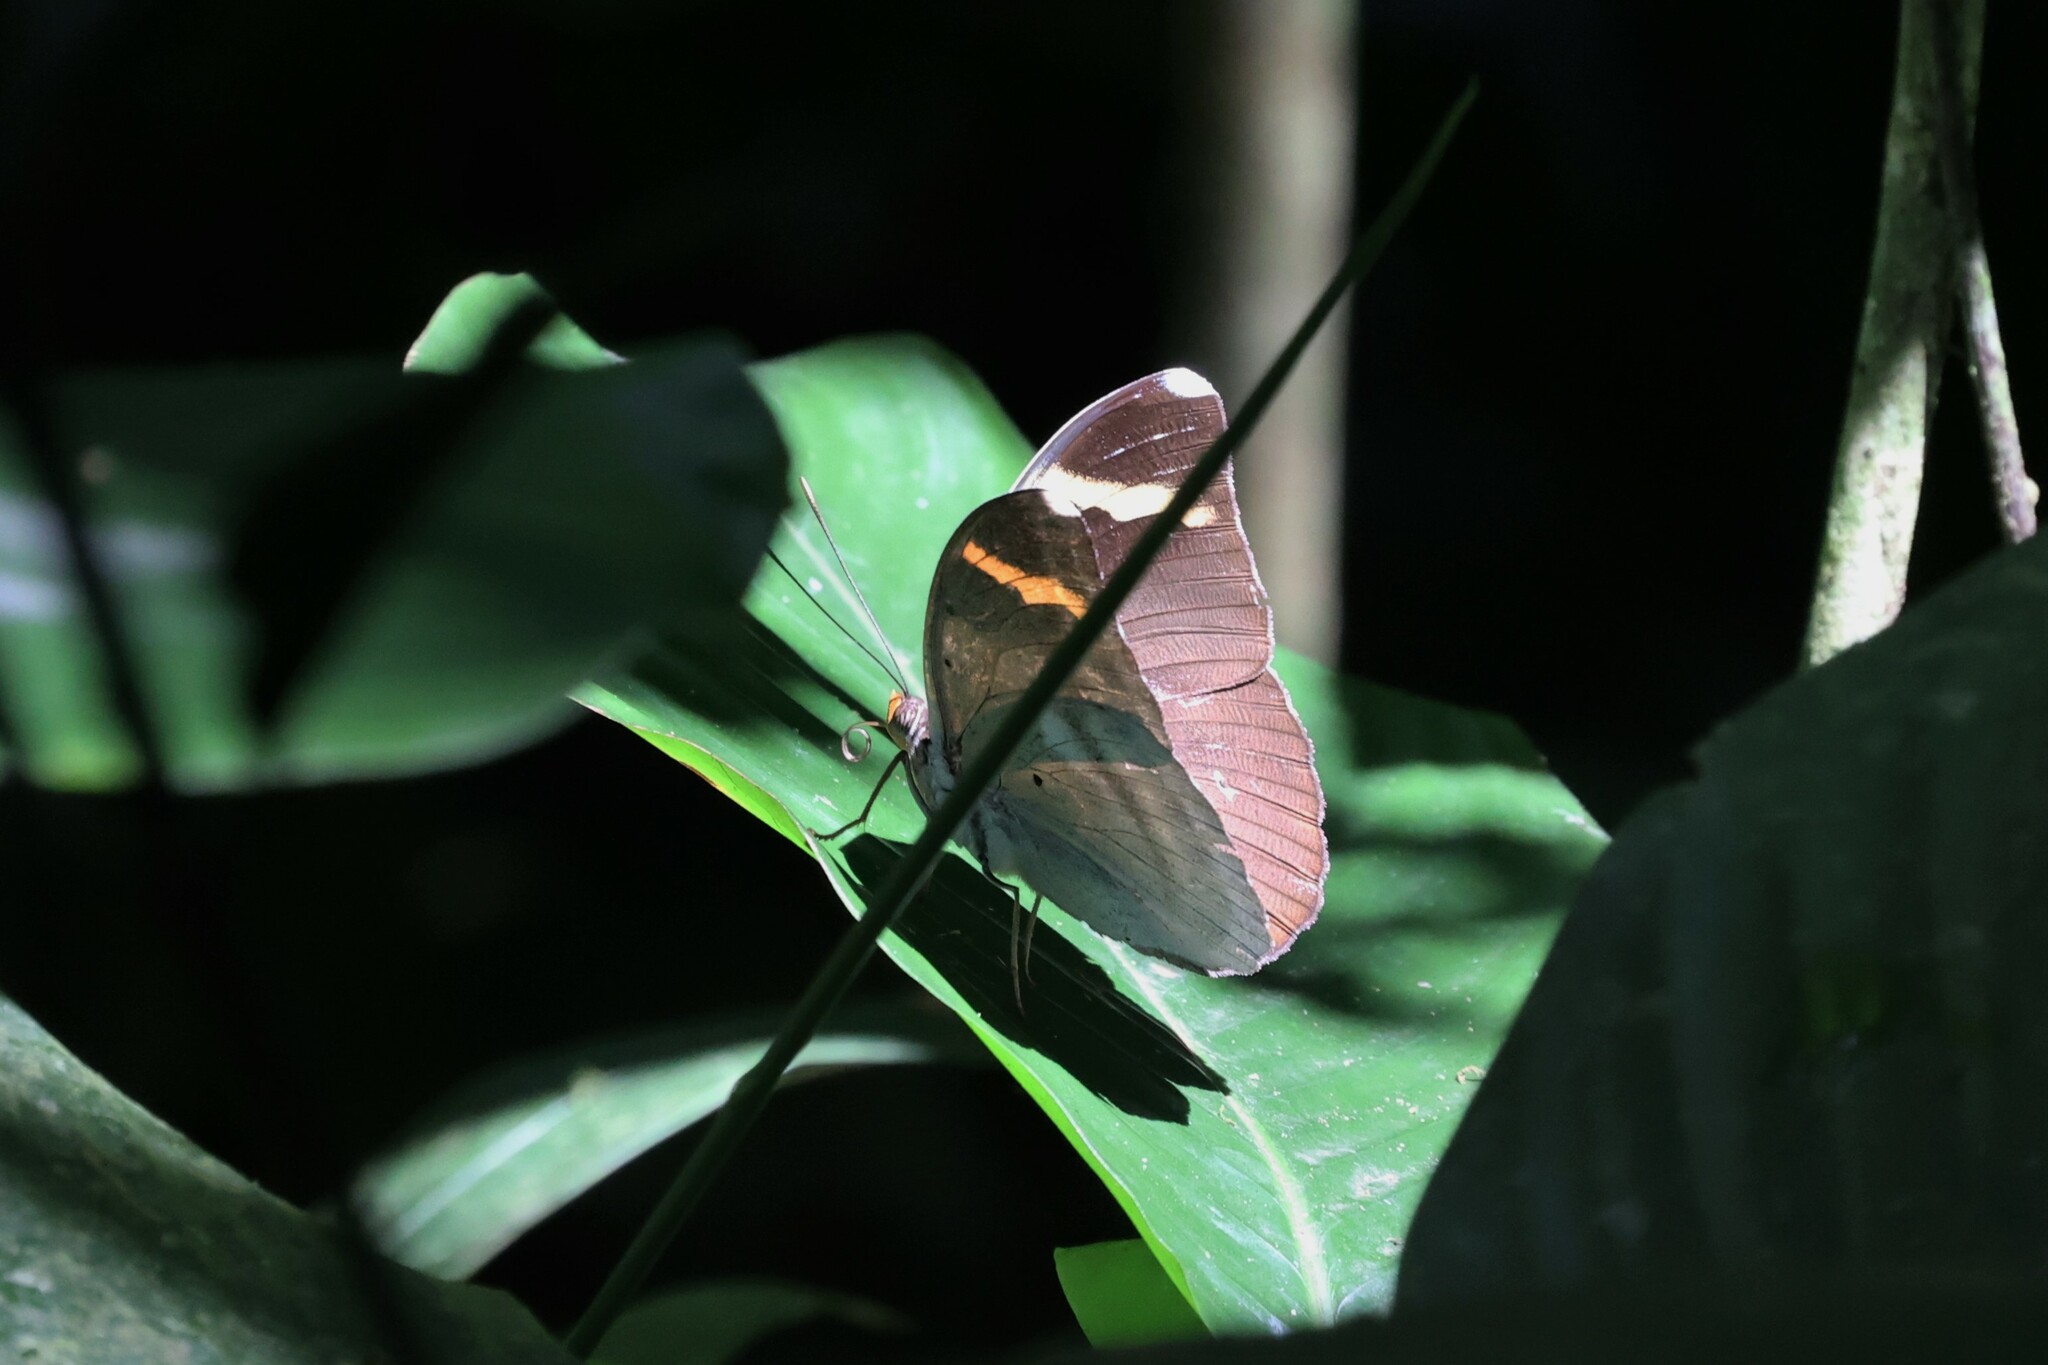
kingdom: Animalia
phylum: Arthropoda
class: Insecta
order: Lepidoptera
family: Nymphalidae
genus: Euphaedra
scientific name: Euphaedra harpalyce
